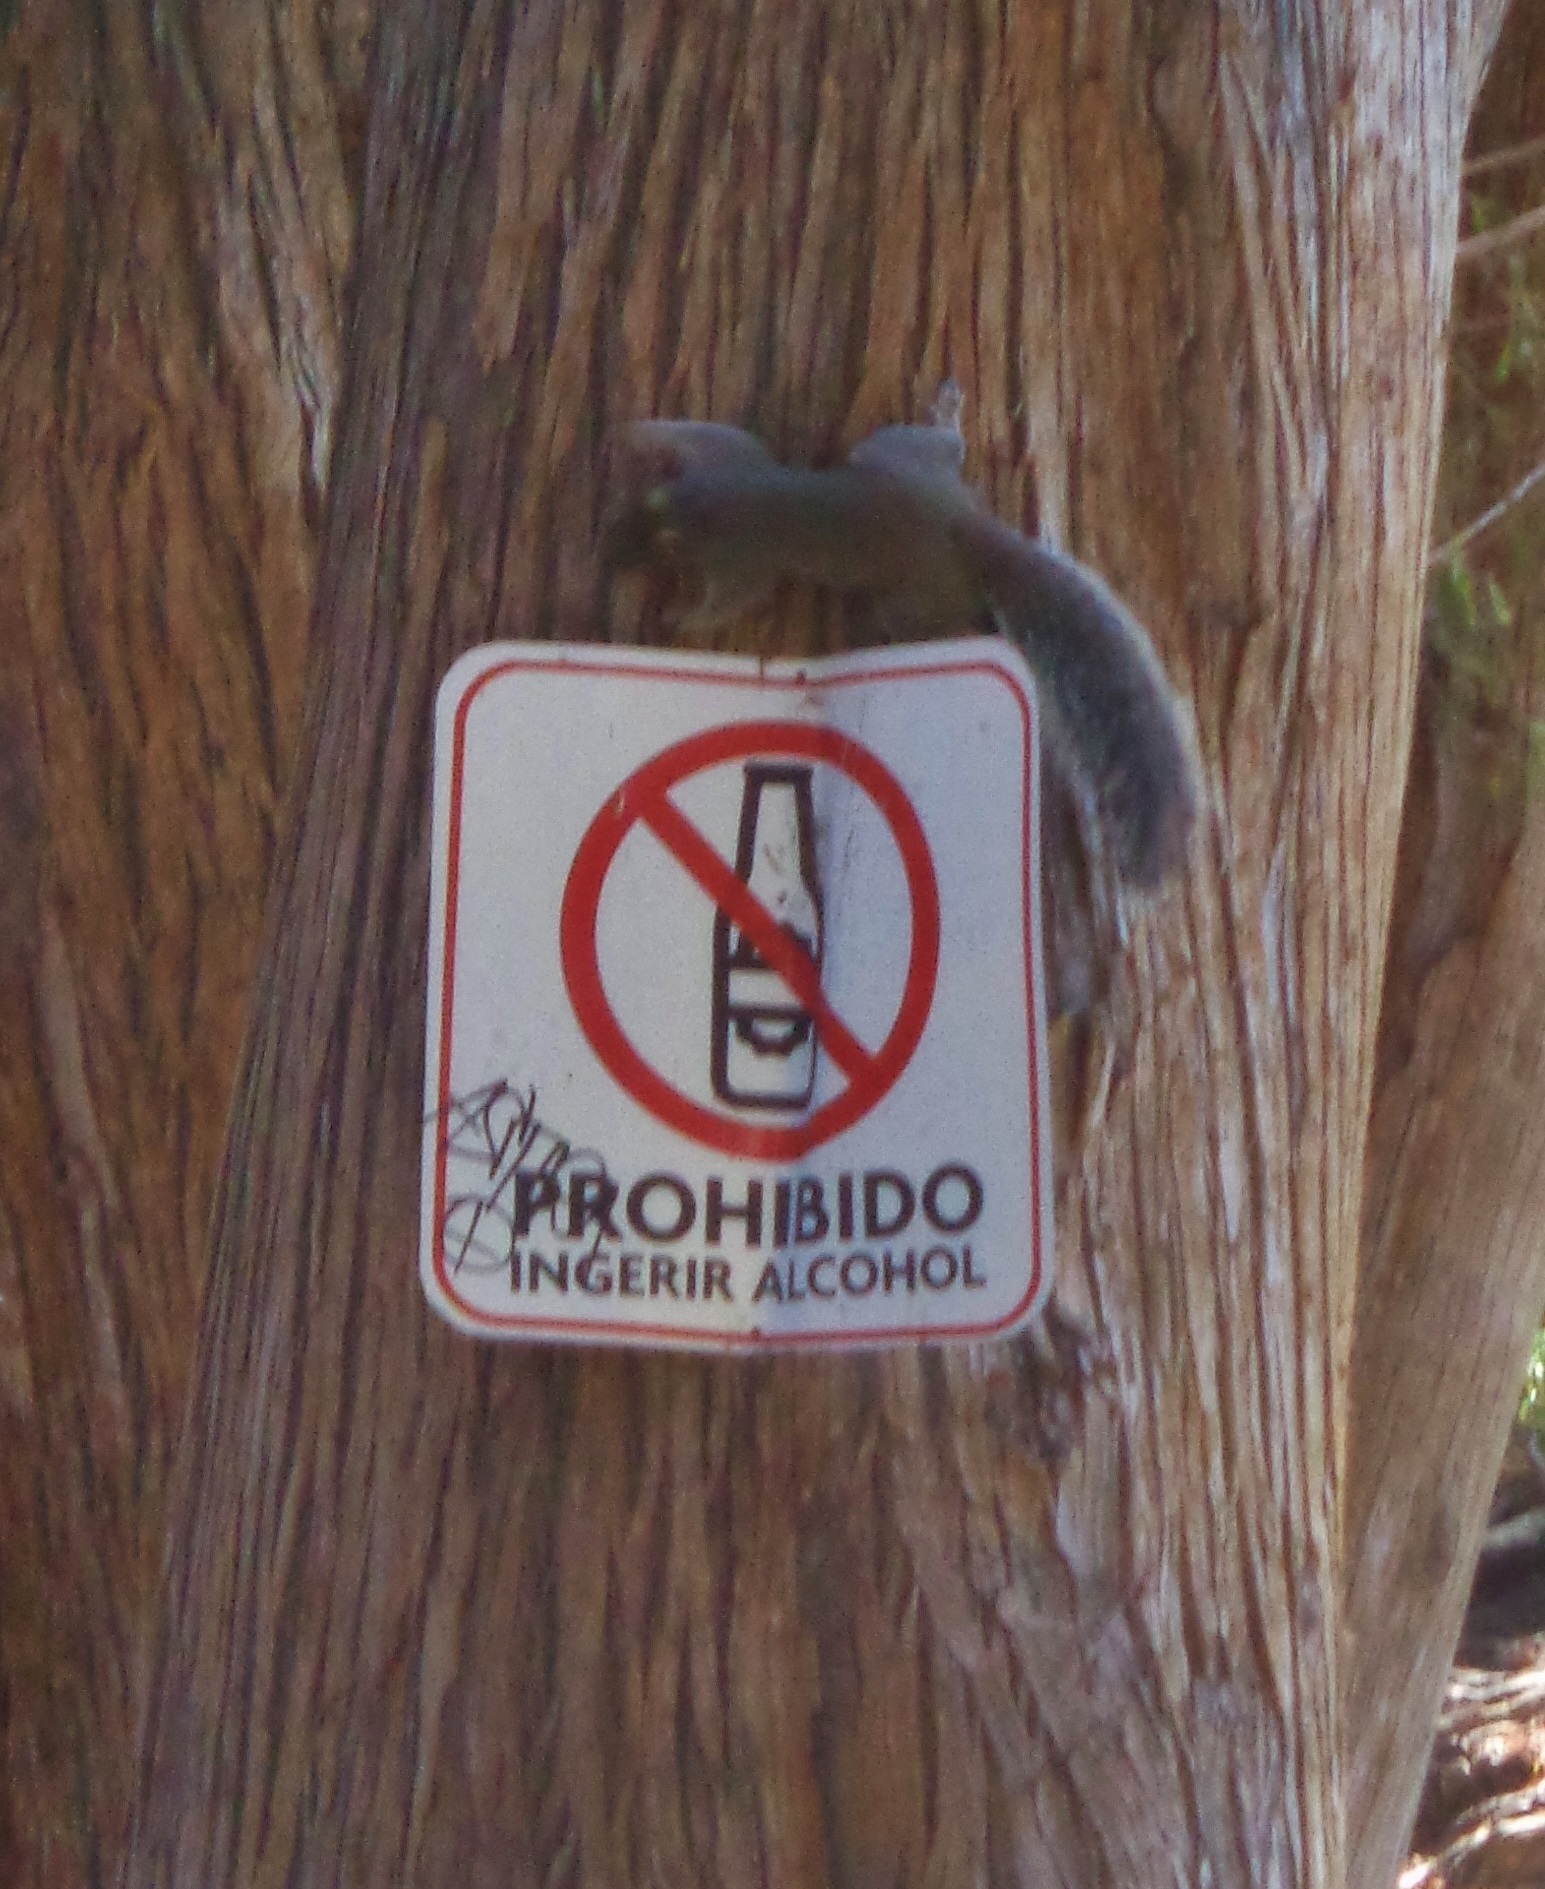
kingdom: Animalia
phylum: Chordata
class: Mammalia
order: Rodentia
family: Sciuridae
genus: Sciurus
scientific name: Sciurus alleni
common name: Allen's squirrel
